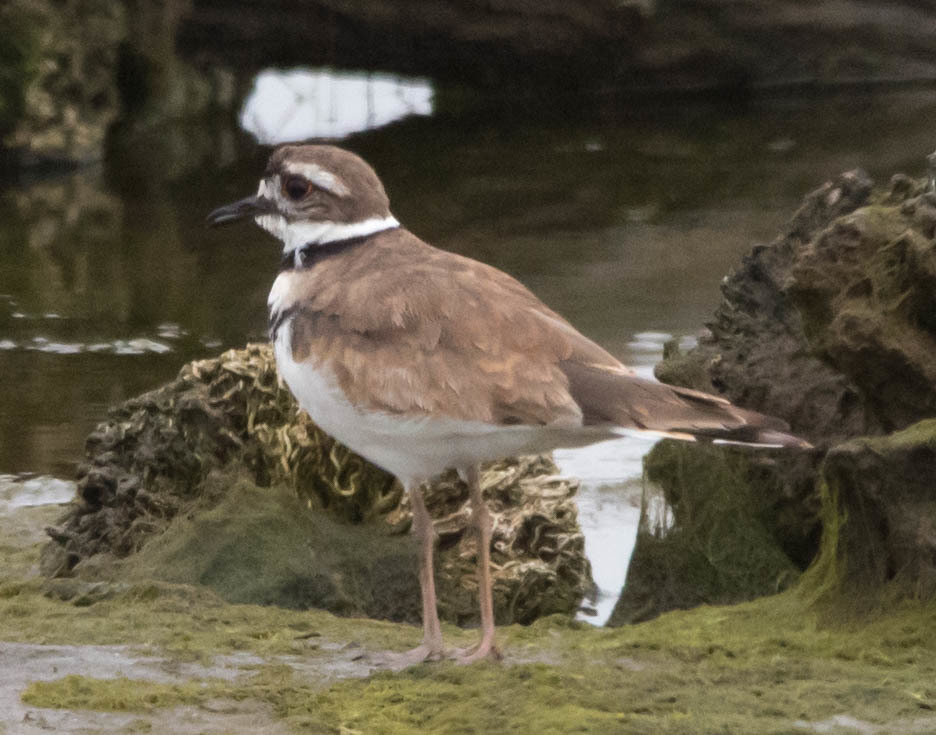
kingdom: Animalia
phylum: Chordata
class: Aves
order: Charadriiformes
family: Charadriidae
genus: Charadrius
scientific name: Charadrius vociferus
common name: Killdeer
